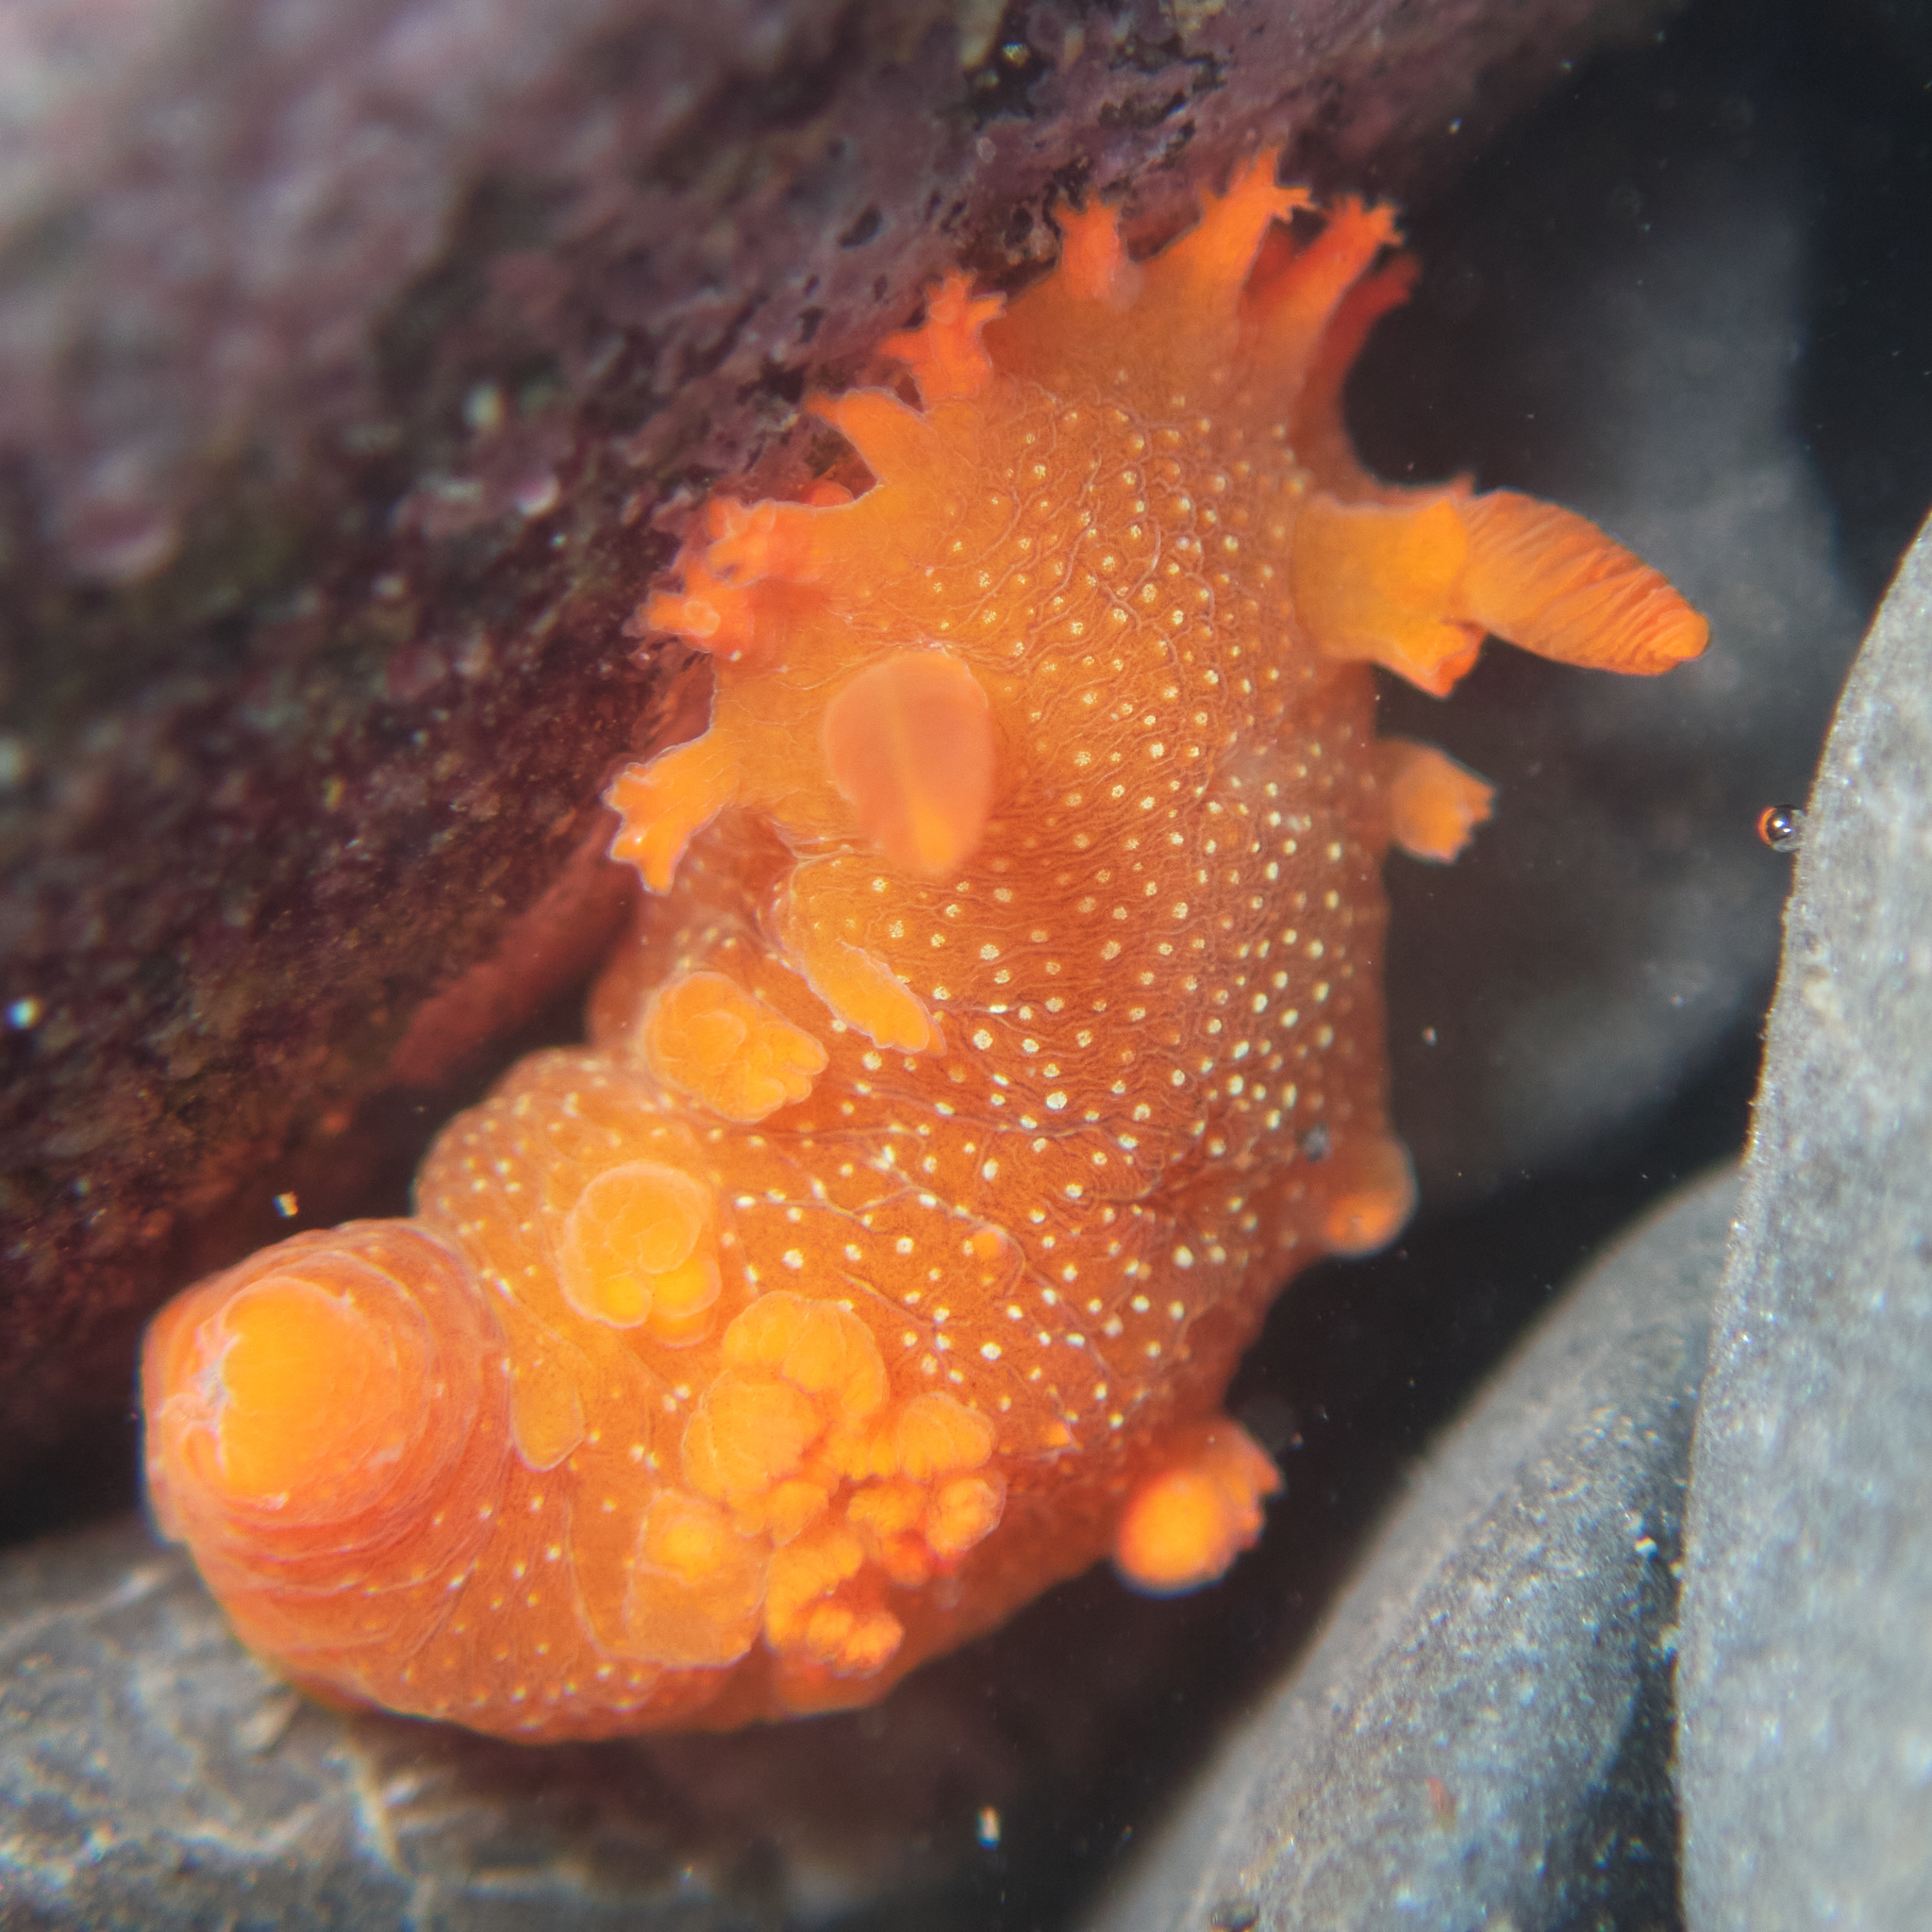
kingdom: Animalia
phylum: Mollusca
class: Gastropoda
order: Nudibranchia
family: Polyceridae
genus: Triopha
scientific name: Triopha maculata
